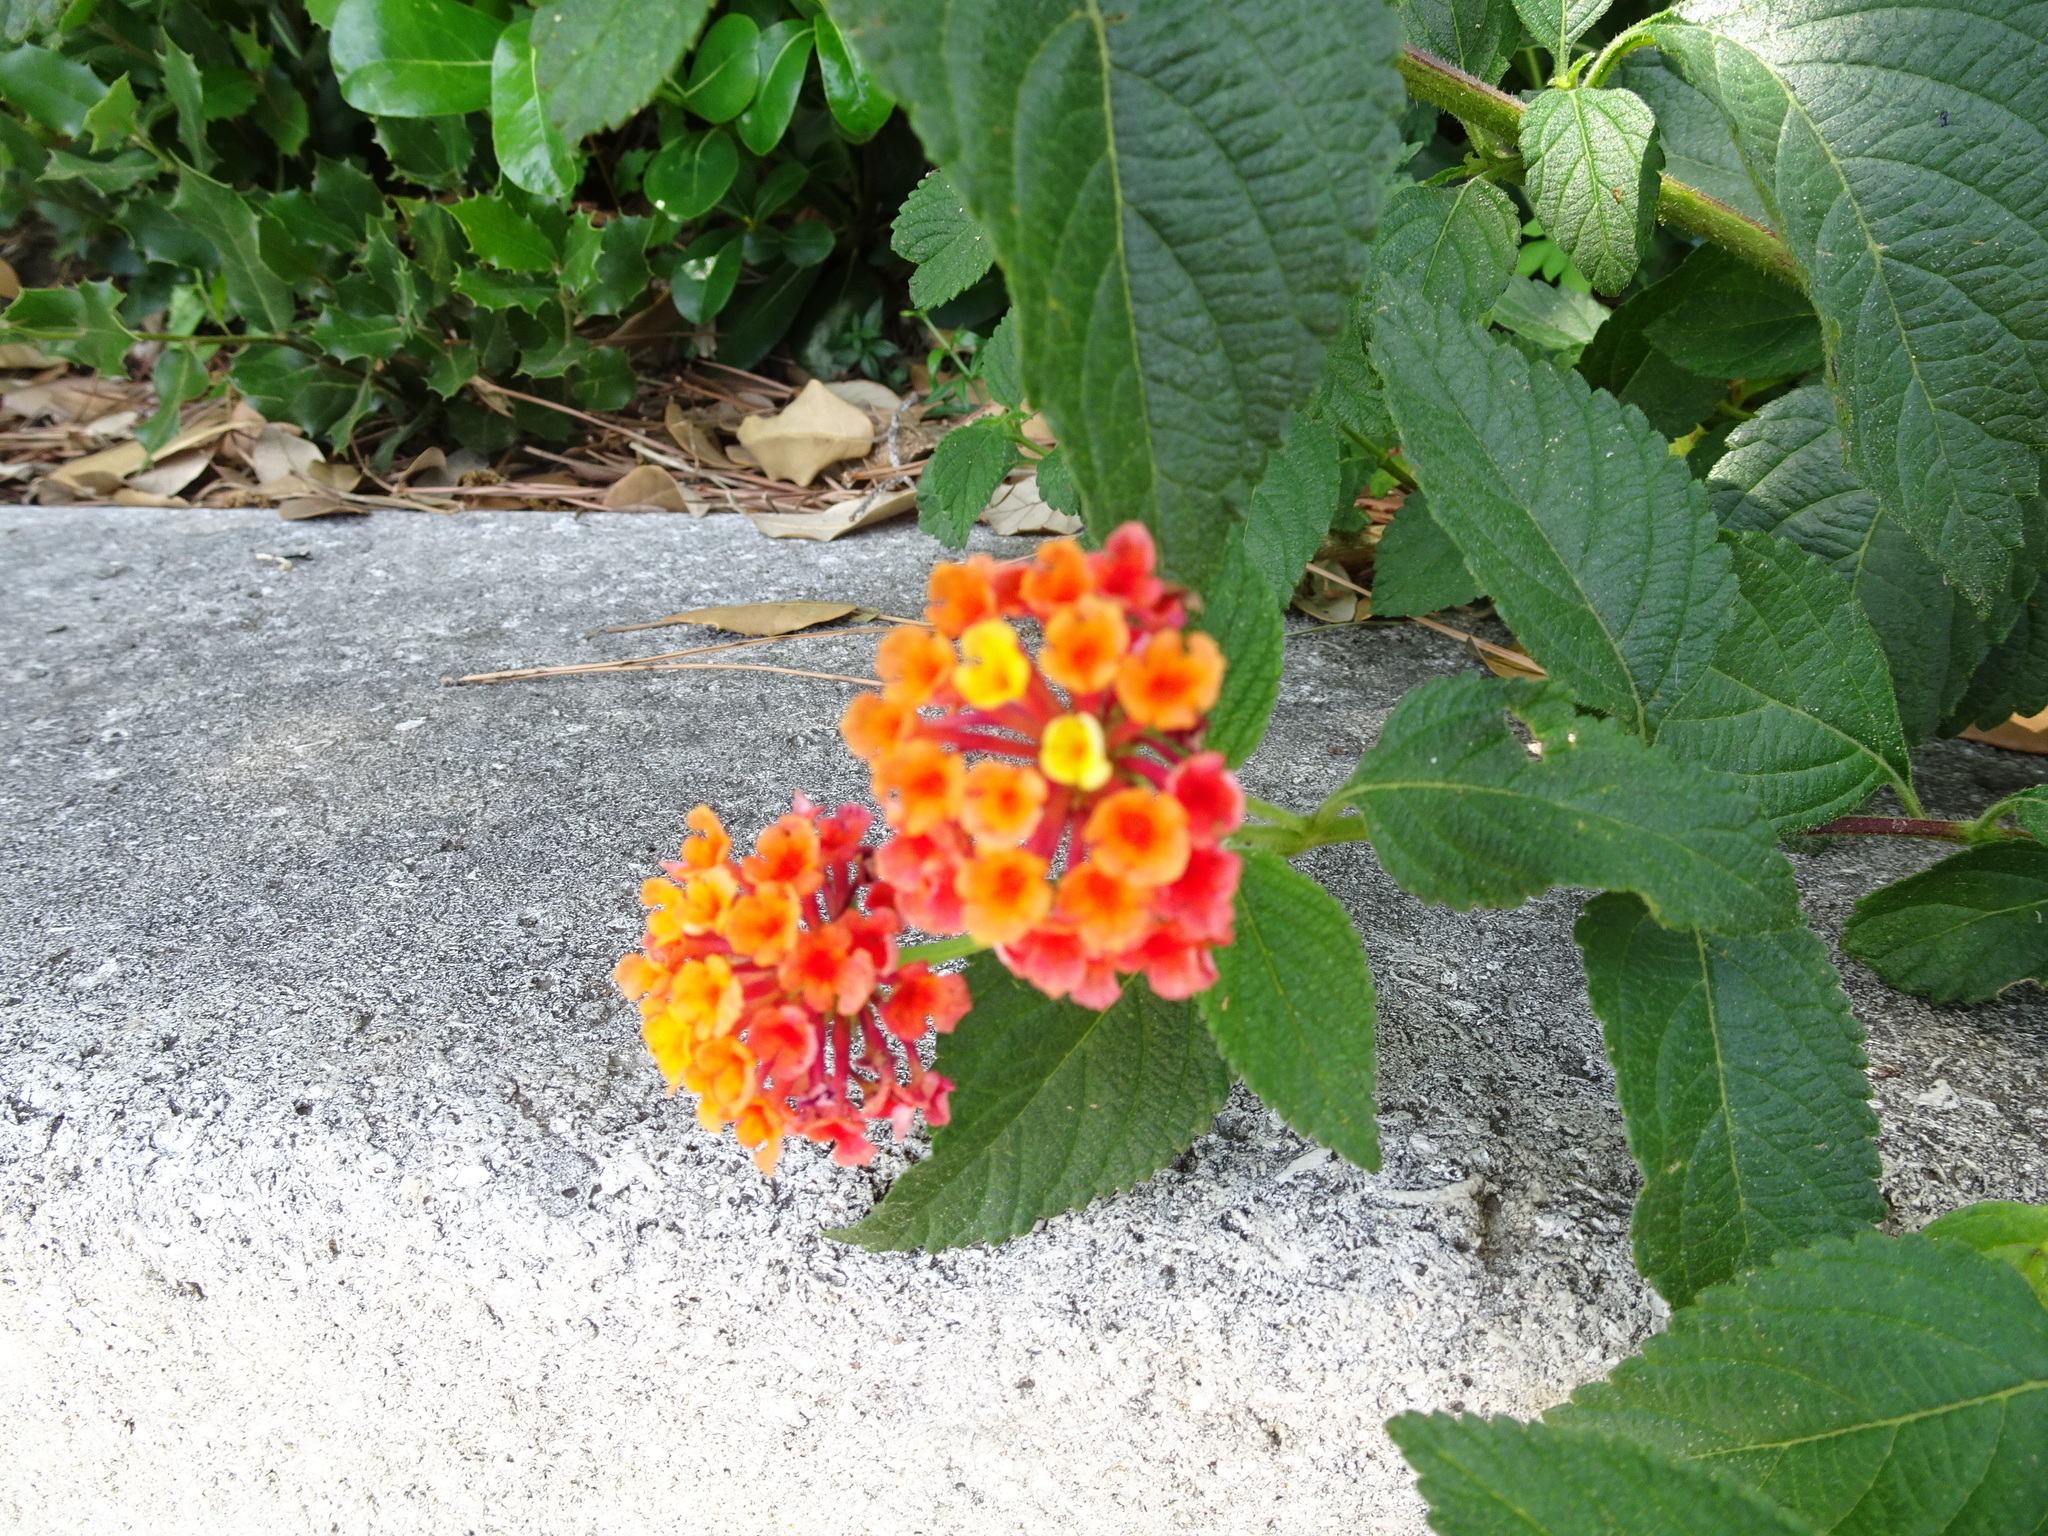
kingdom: Plantae
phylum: Tracheophyta
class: Magnoliopsida
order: Lamiales
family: Verbenaceae
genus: Lantana
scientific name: Lantana camara
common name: Lantana
